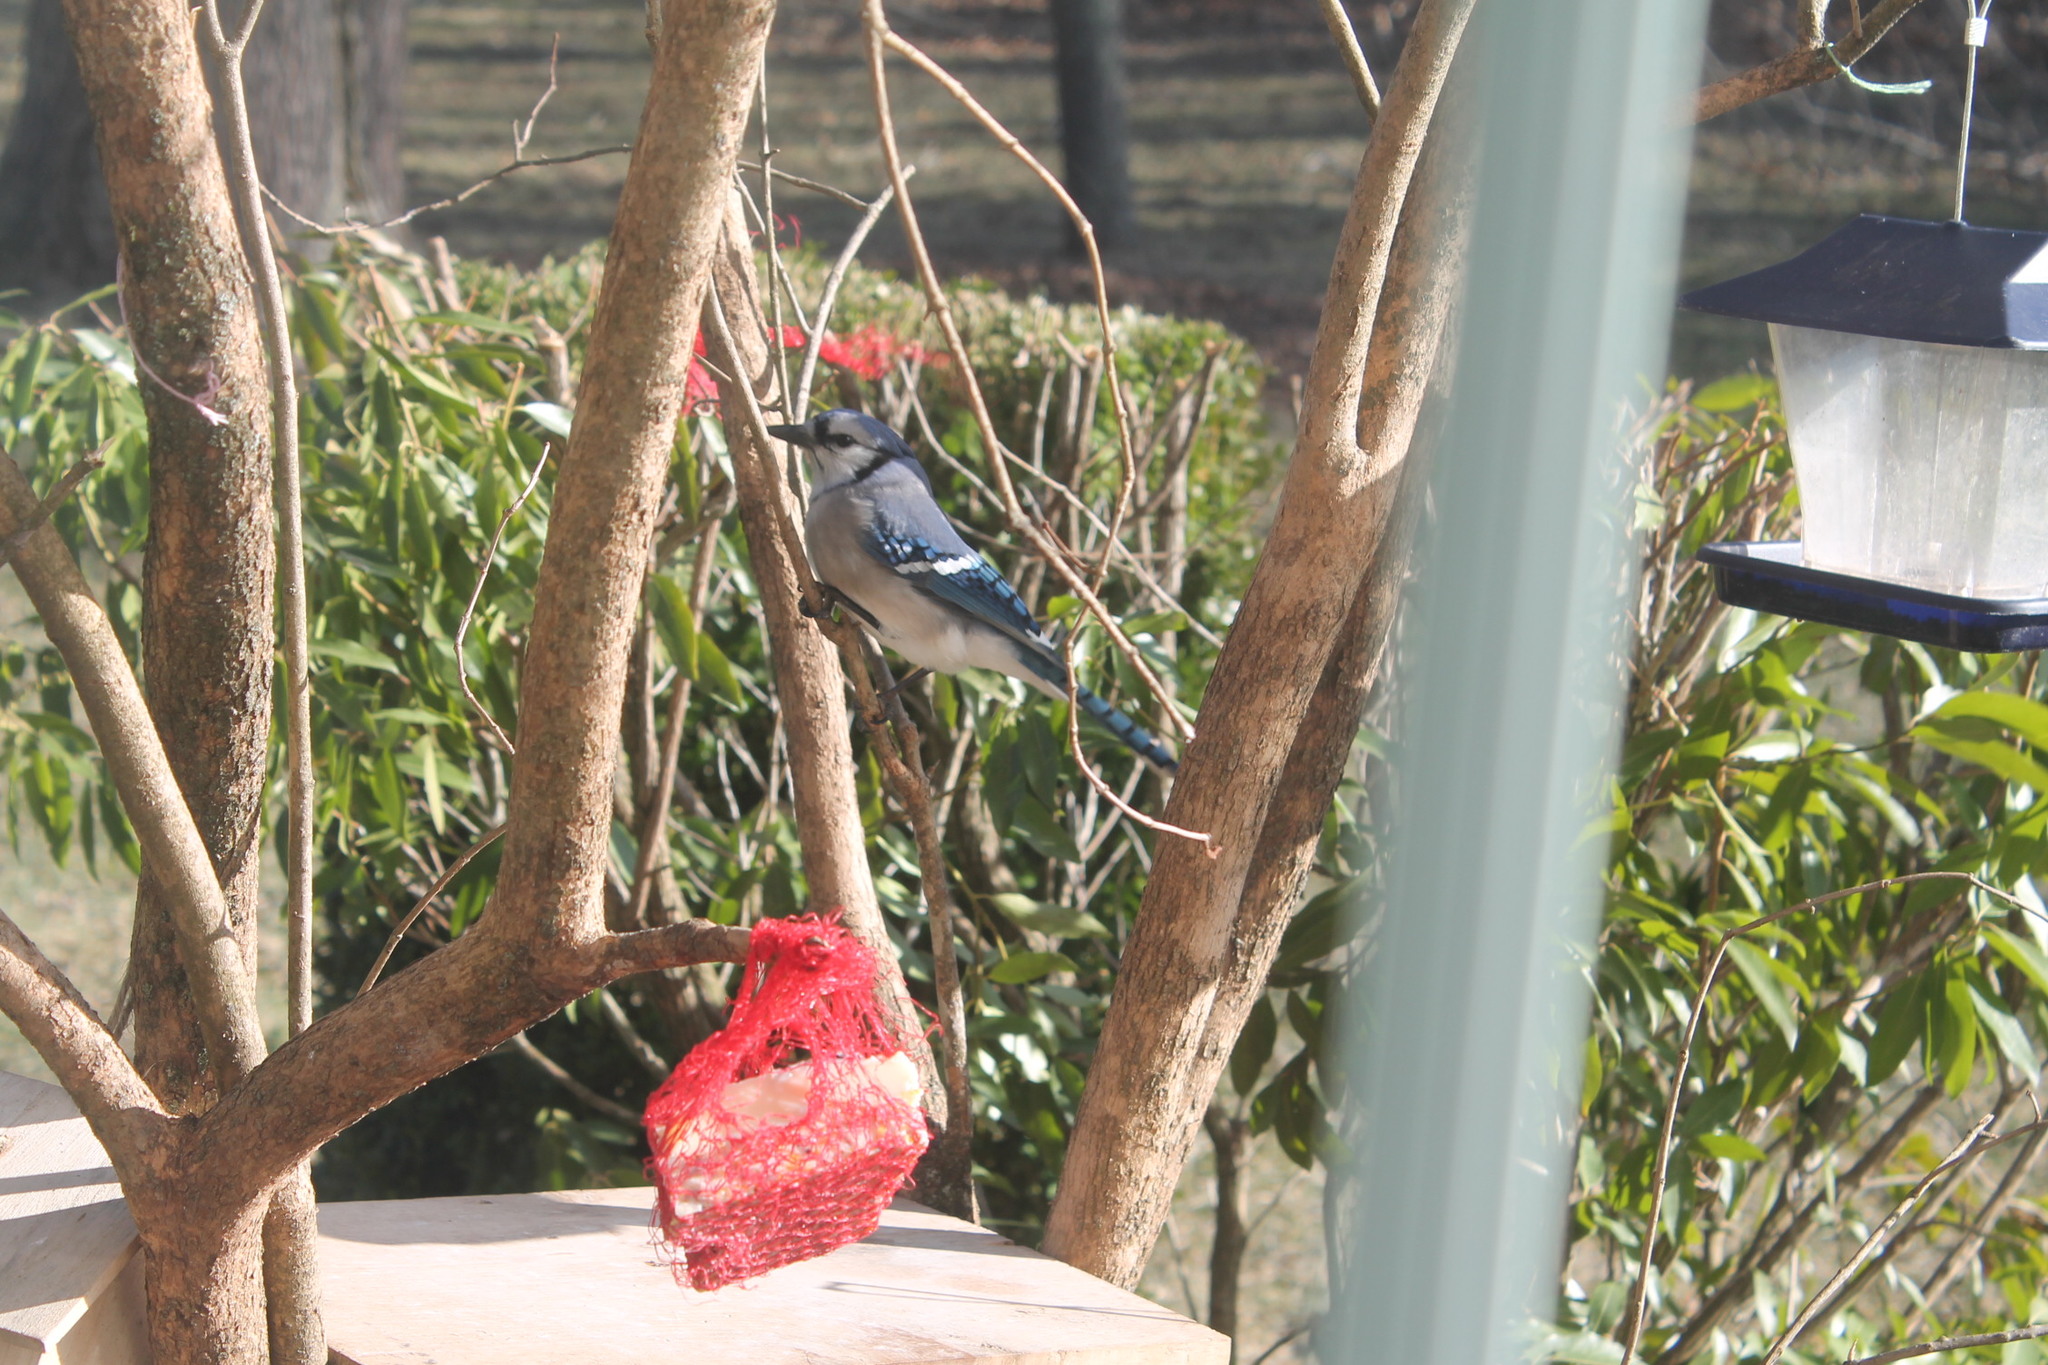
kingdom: Animalia
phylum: Chordata
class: Aves
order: Passeriformes
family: Corvidae
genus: Cyanocitta
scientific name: Cyanocitta cristata
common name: Blue jay
